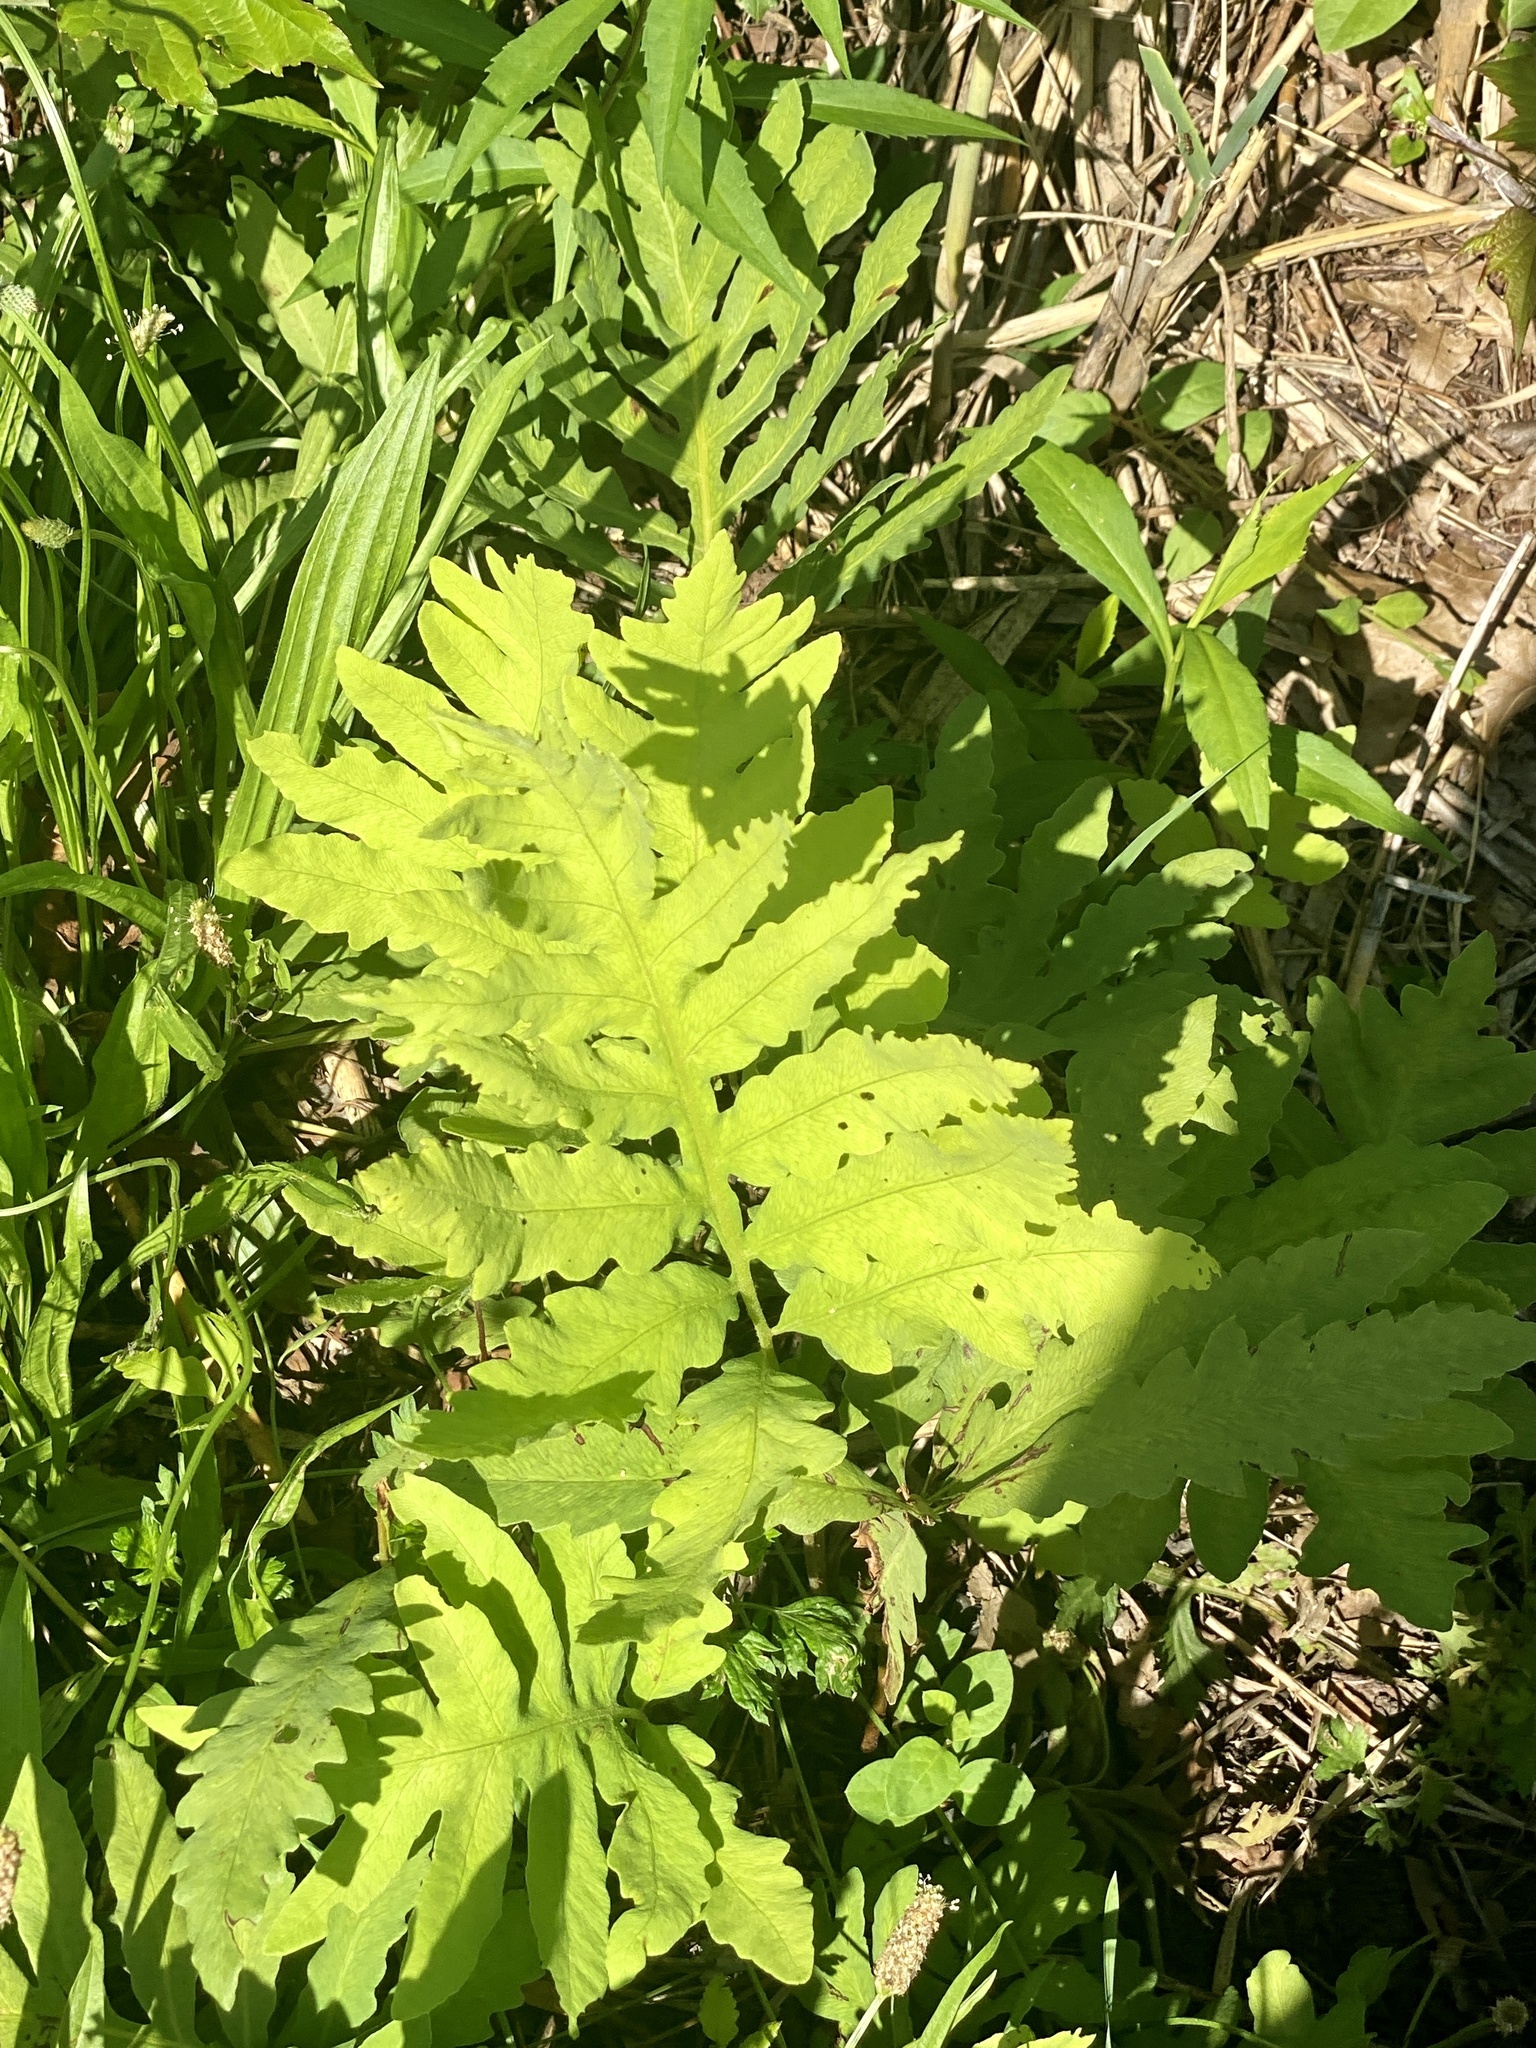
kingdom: Plantae
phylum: Tracheophyta
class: Polypodiopsida
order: Polypodiales
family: Onocleaceae
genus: Onoclea
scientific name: Onoclea sensibilis
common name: Sensitive fern
